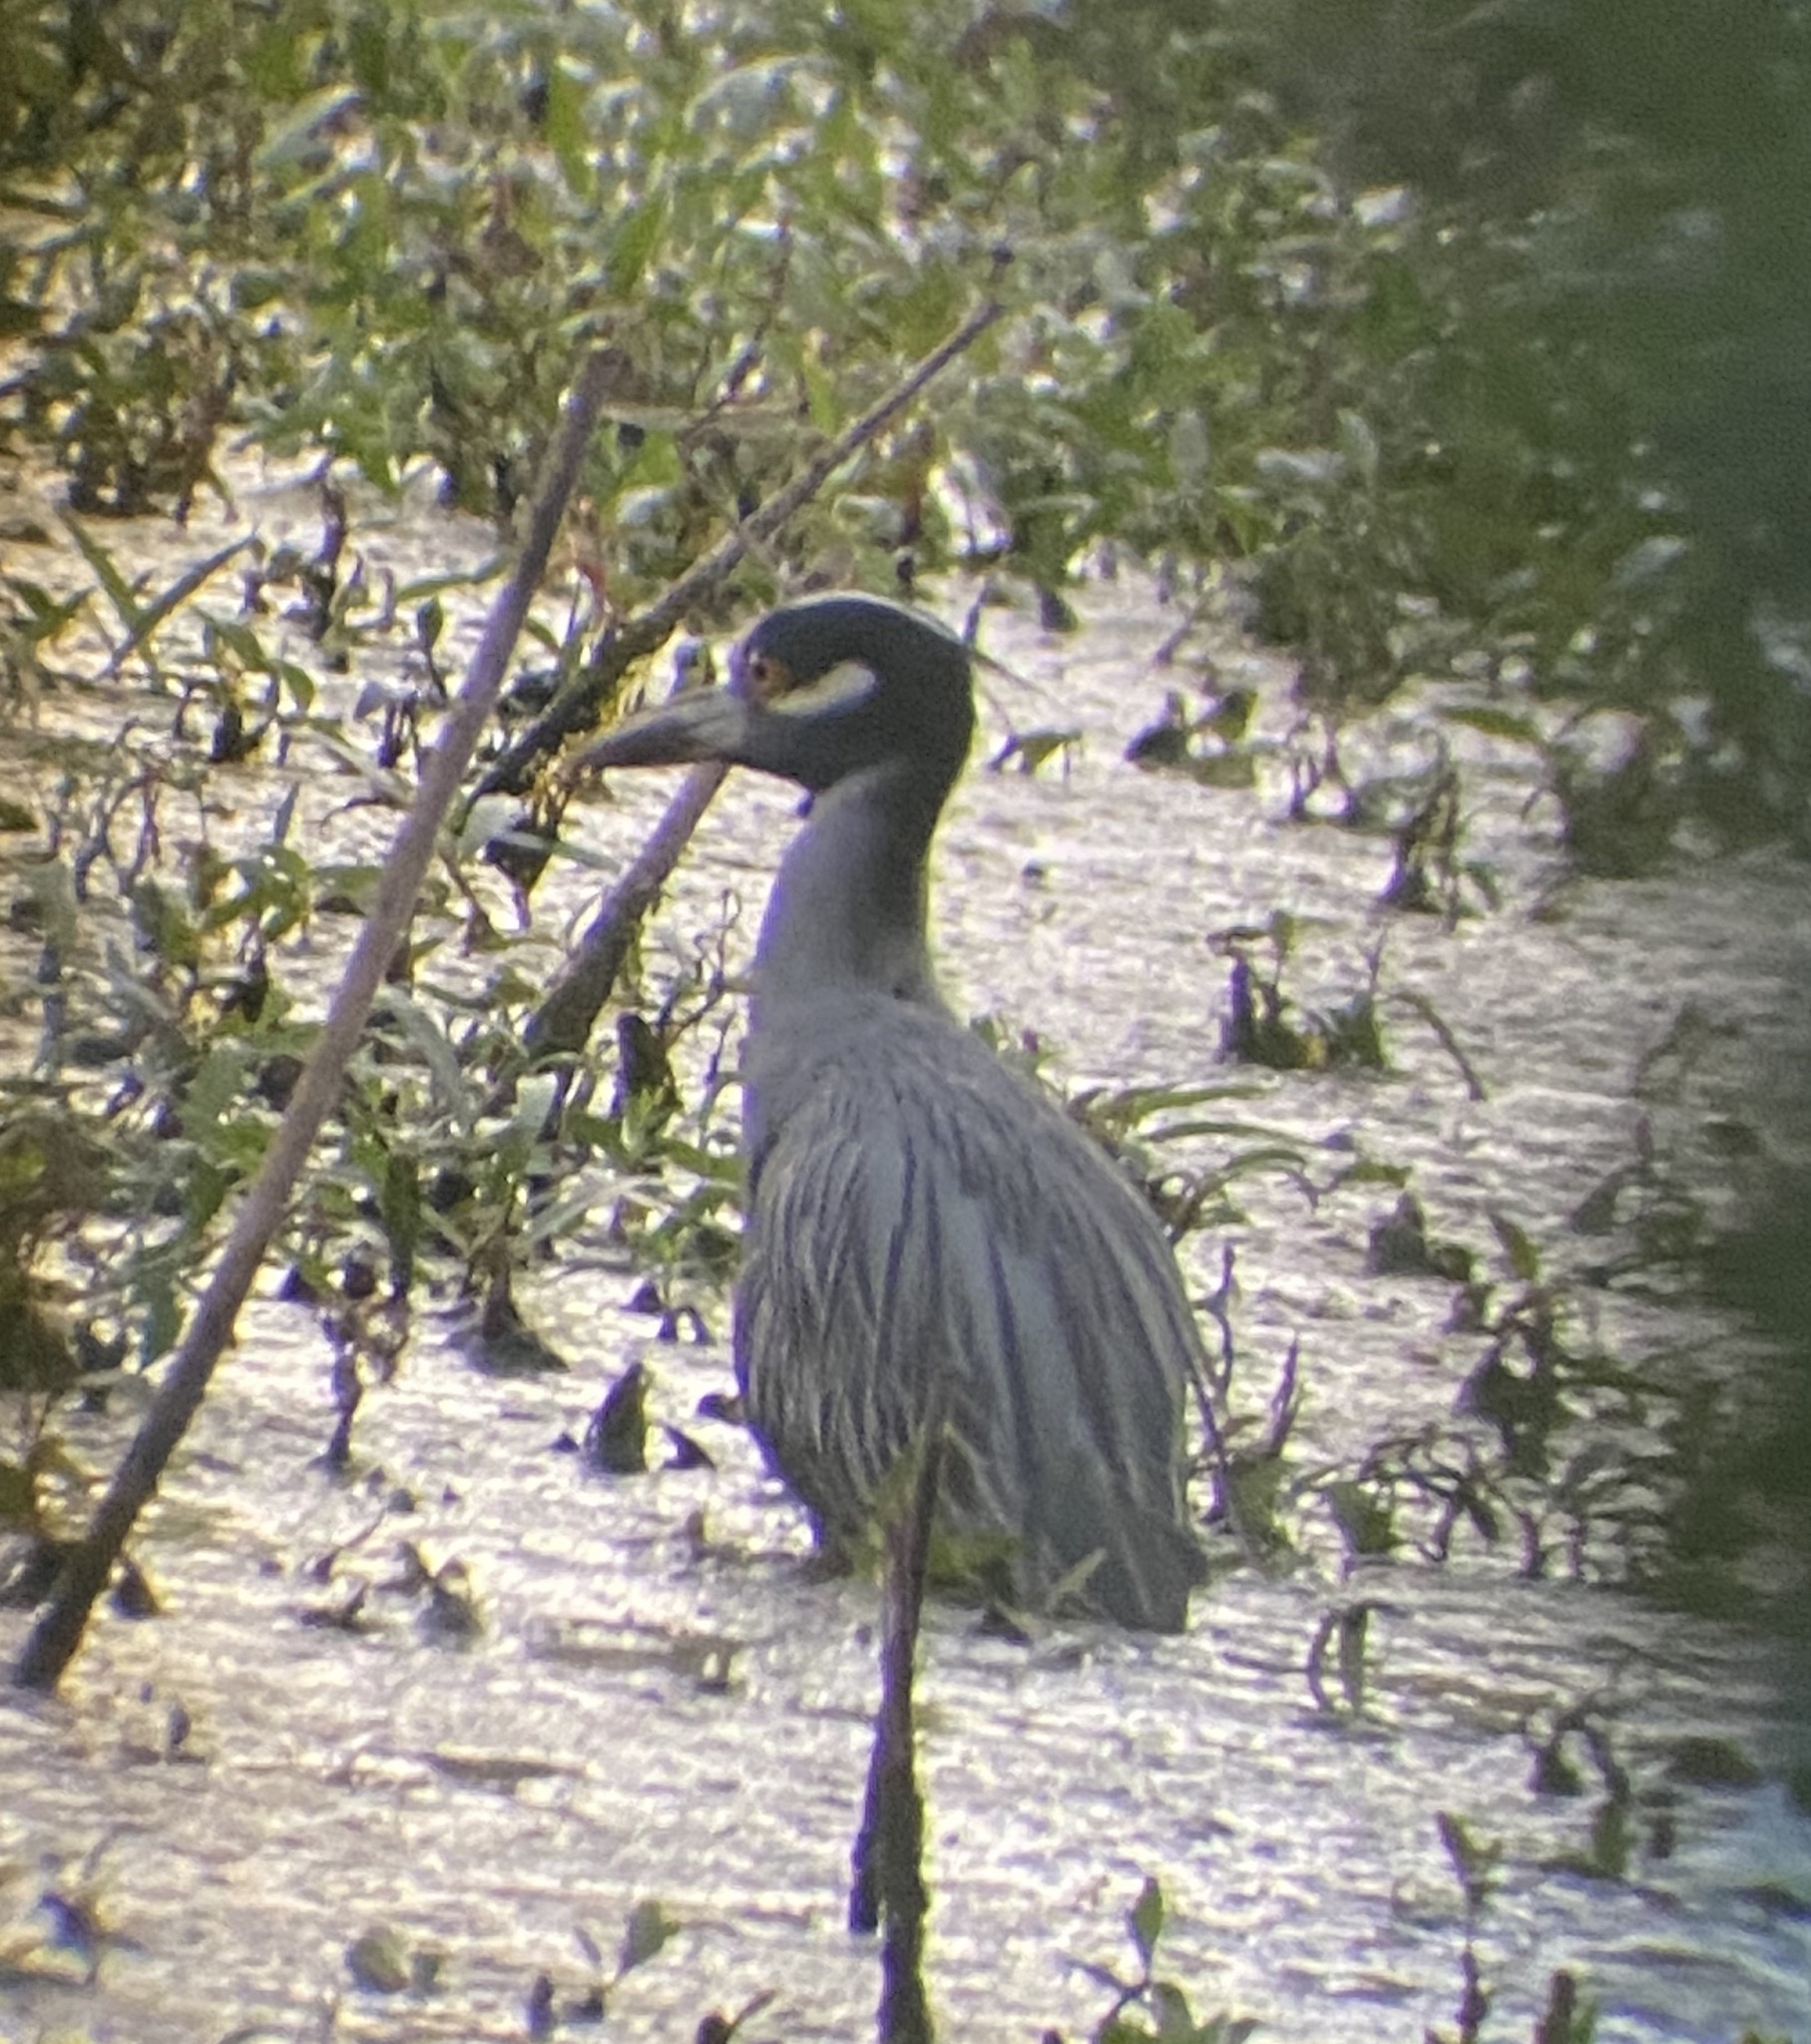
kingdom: Animalia
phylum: Chordata
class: Aves
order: Pelecaniformes
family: Ardeidae
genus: Nyctanassa
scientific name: Nyctanassa violacea
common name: Yellow-crowned night heron
